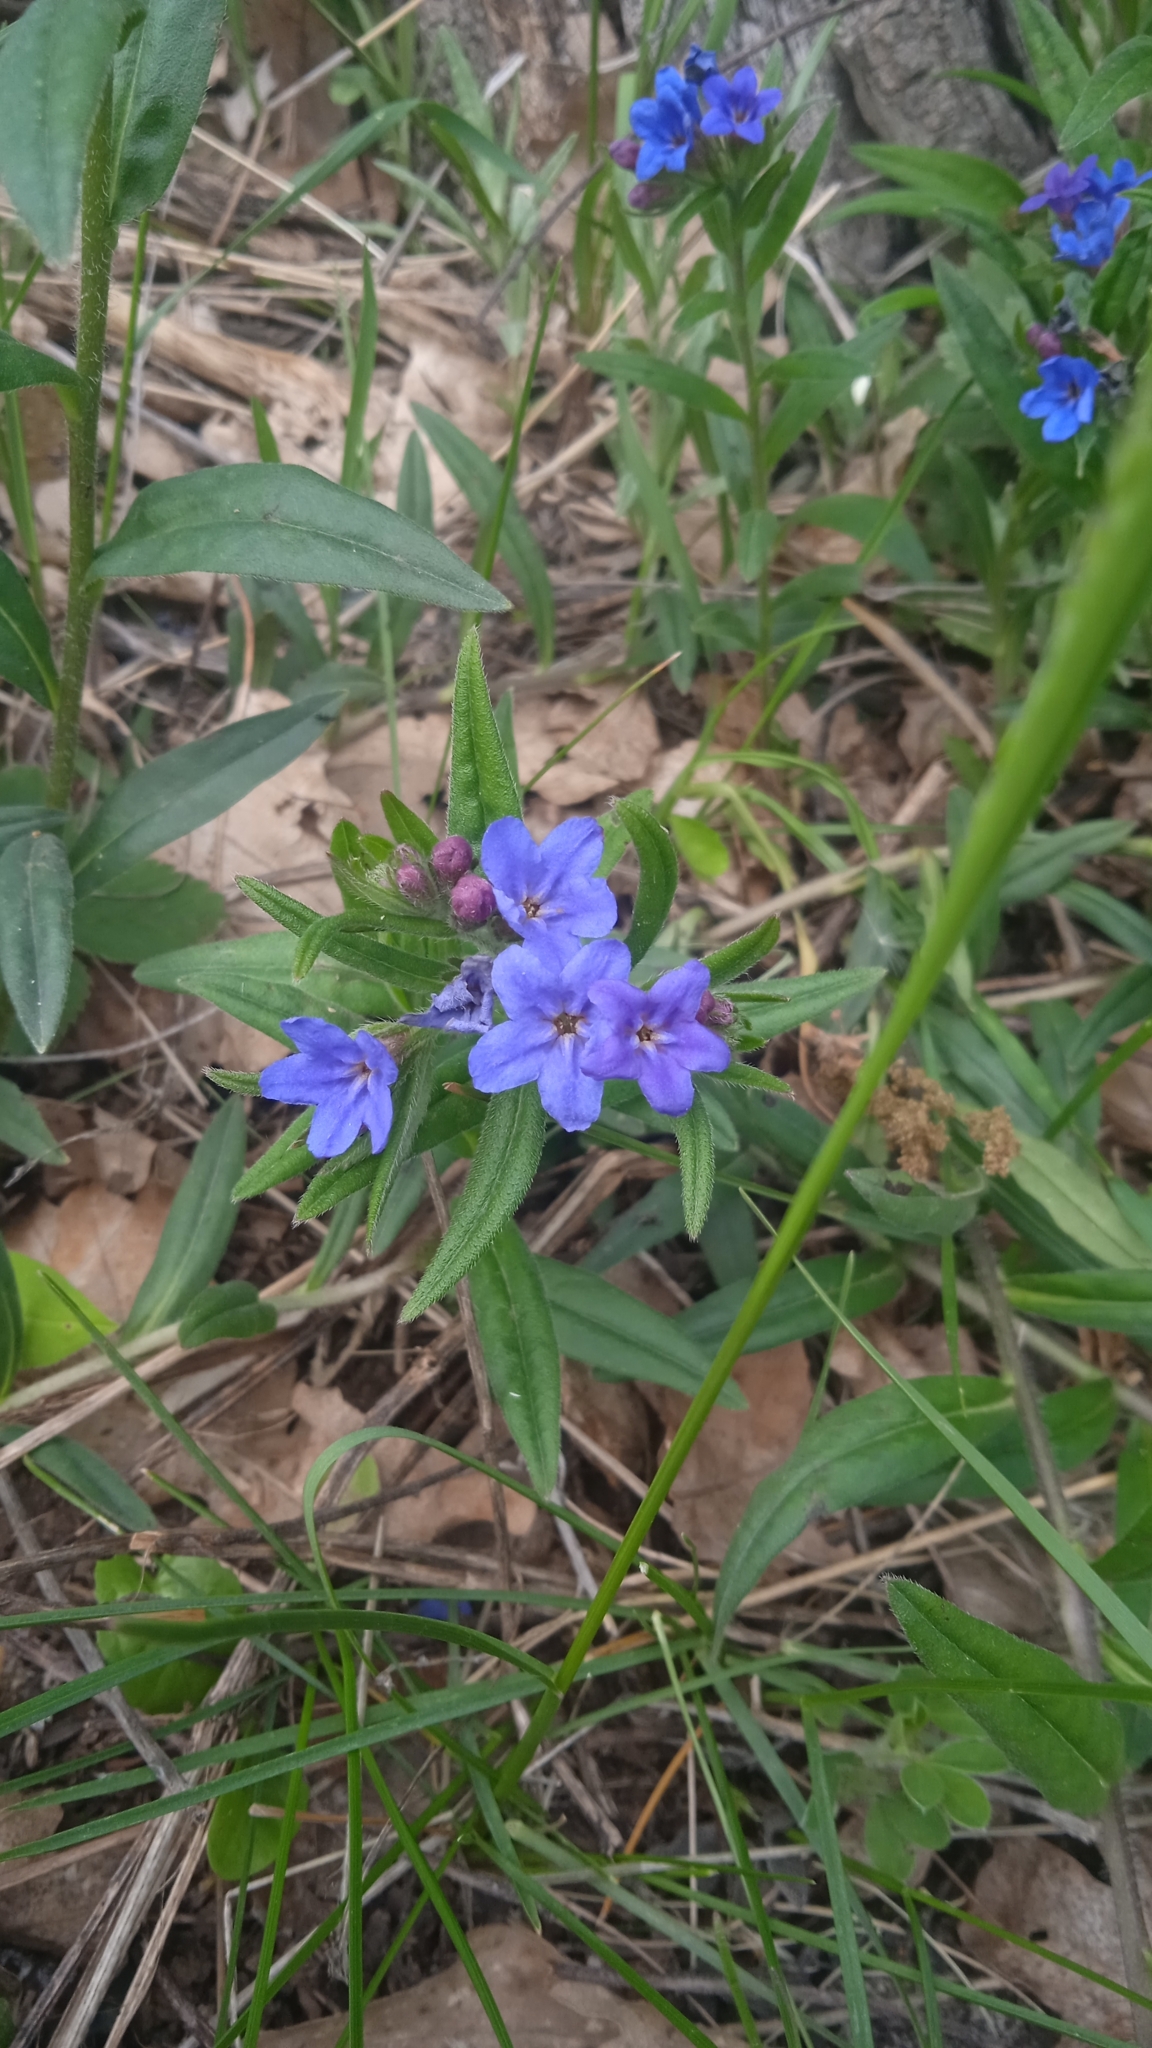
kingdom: Plantae
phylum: Tracheophyta
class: Magnoliopsida
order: Boraginales
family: Boraginaceae
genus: Aegonychon
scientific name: Aegonychon purpurocaeruleum
